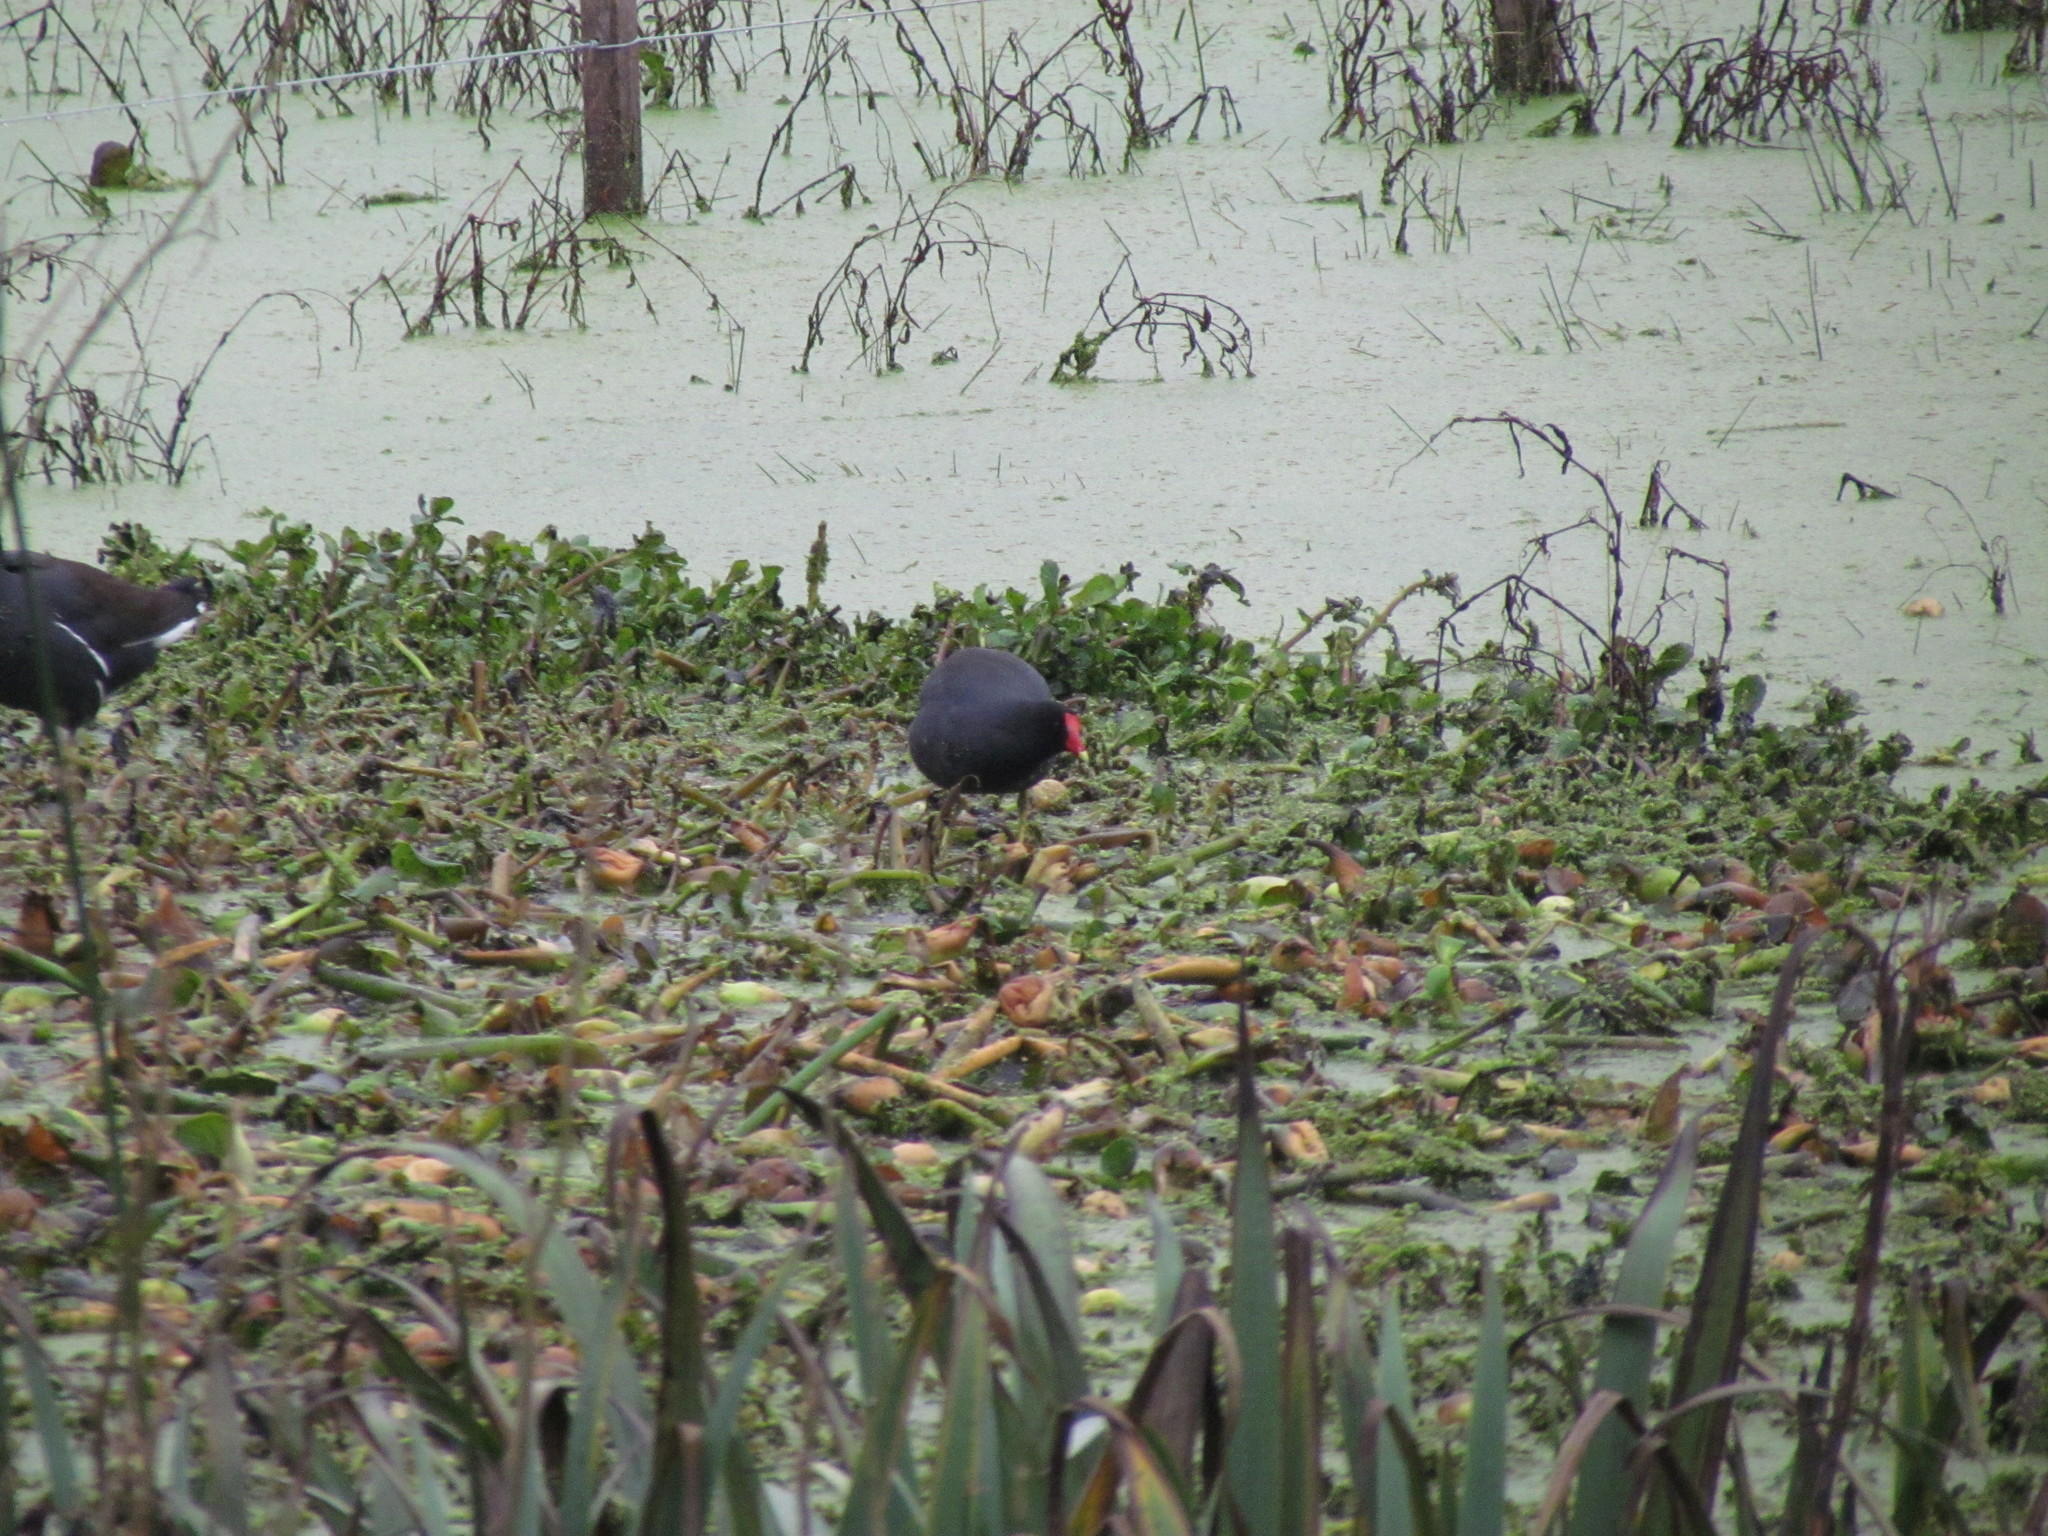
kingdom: Animalia
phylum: Chordata
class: Aves
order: Gruiformes
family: Rallidae
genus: Gallinula
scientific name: Gallinula chloropus
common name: Common moorhen
